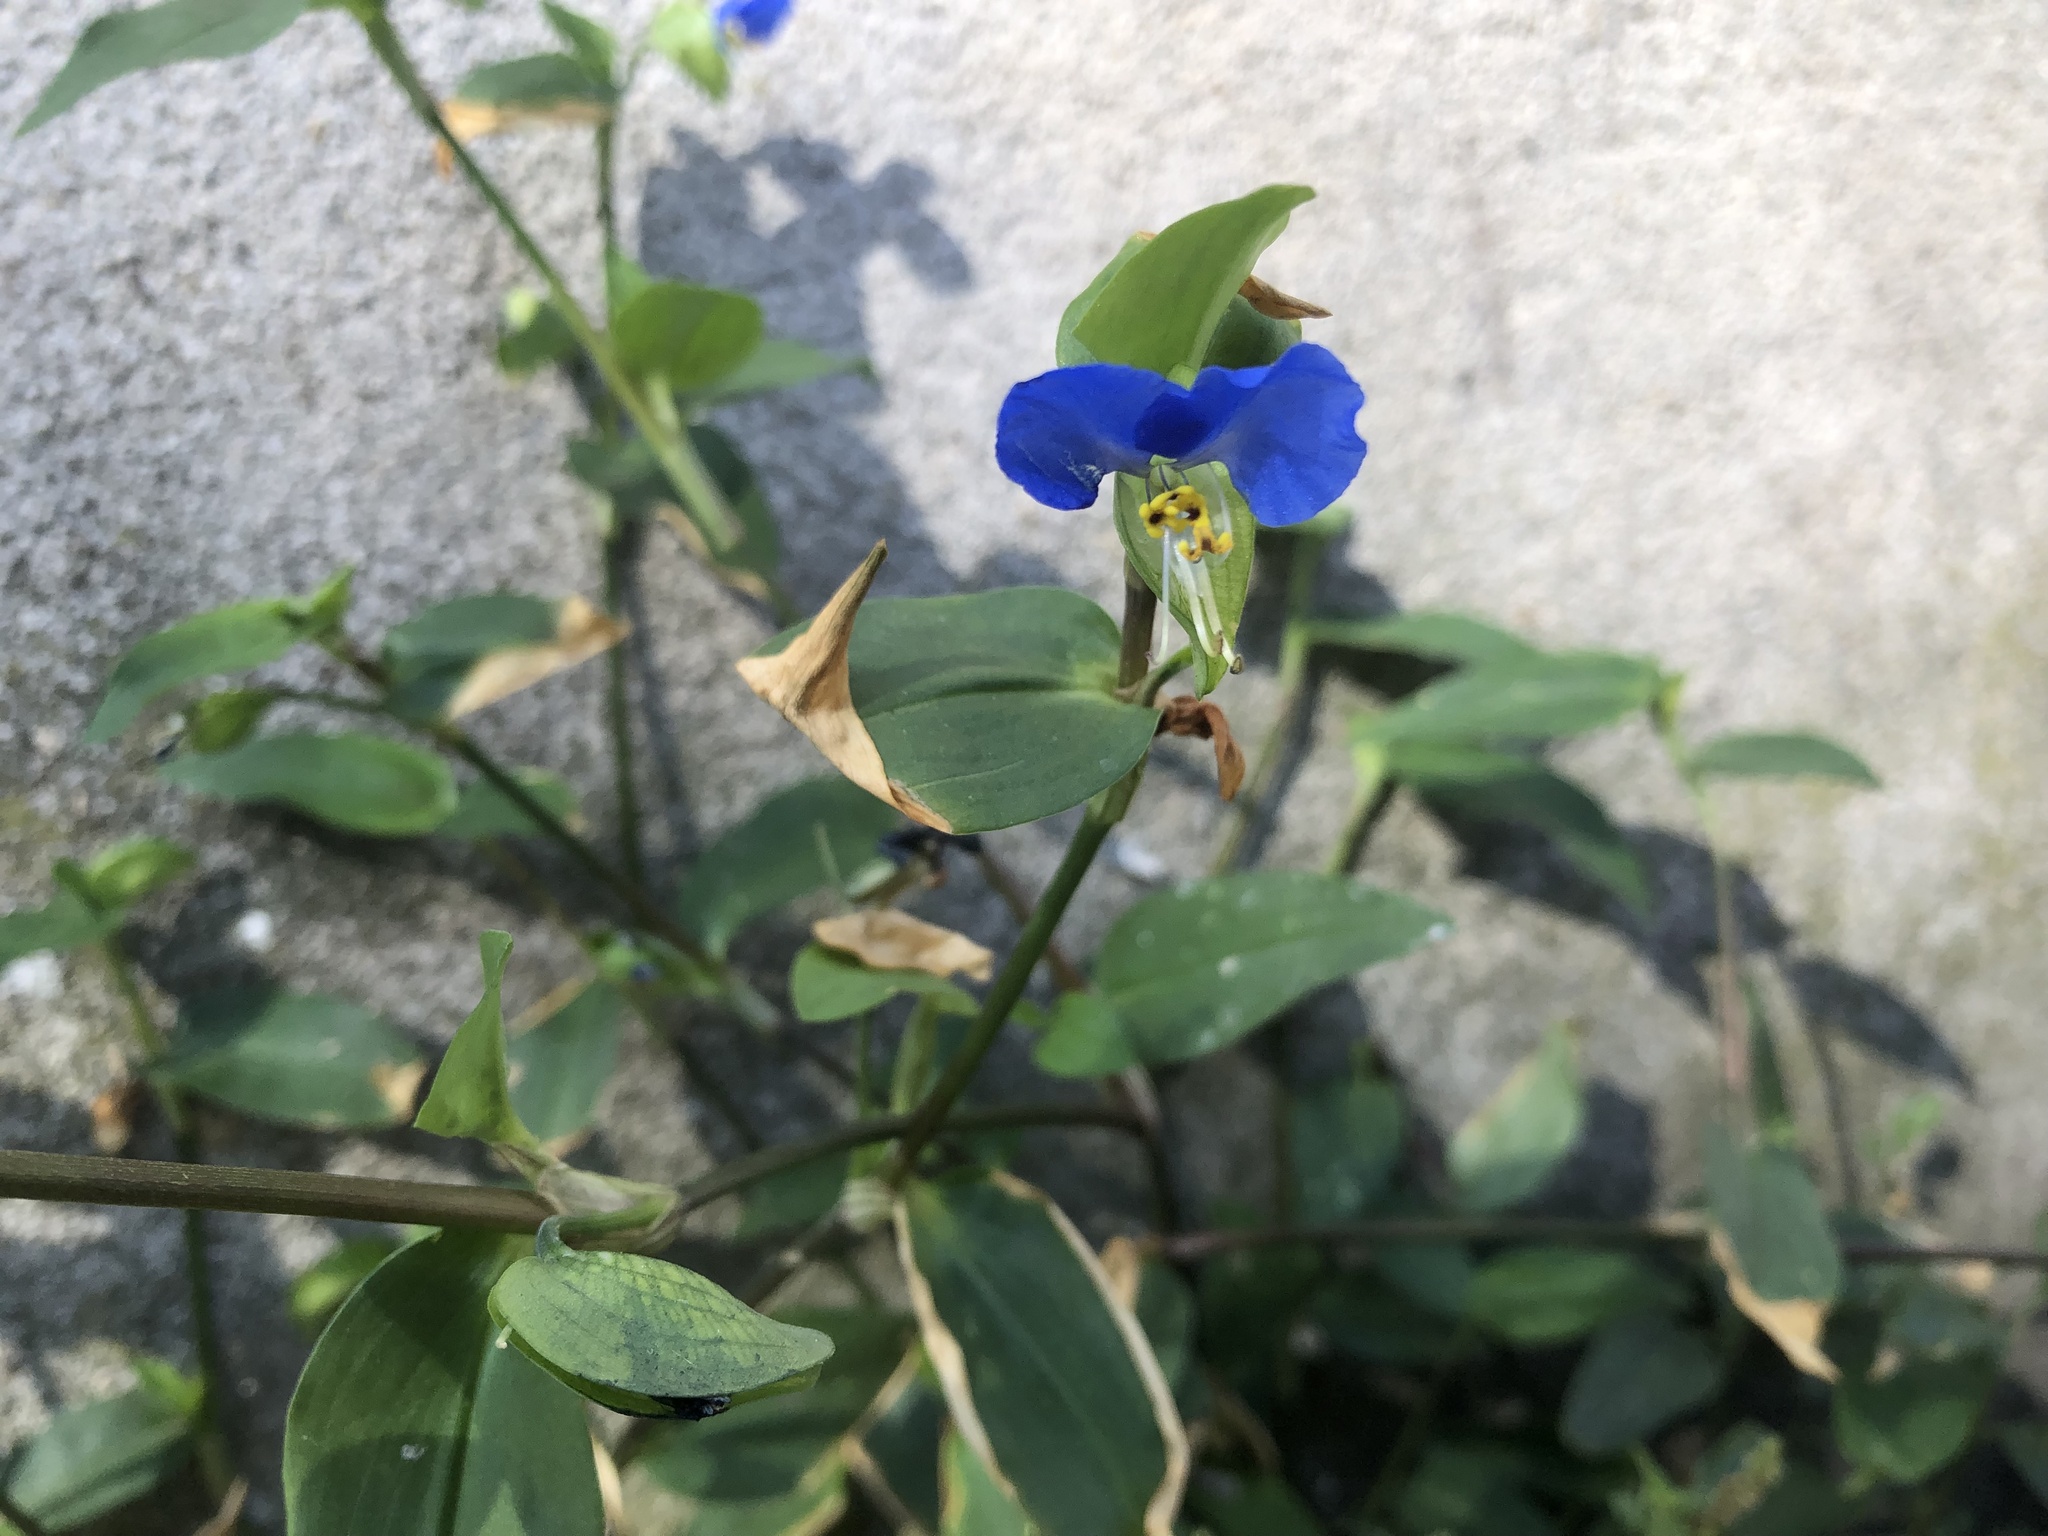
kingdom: Plantae
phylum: Tracheophyta
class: Liliopsida
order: Commelinales
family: Commelinaceae
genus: Commelina
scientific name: Commelina communis
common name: Asiatic dayflower
